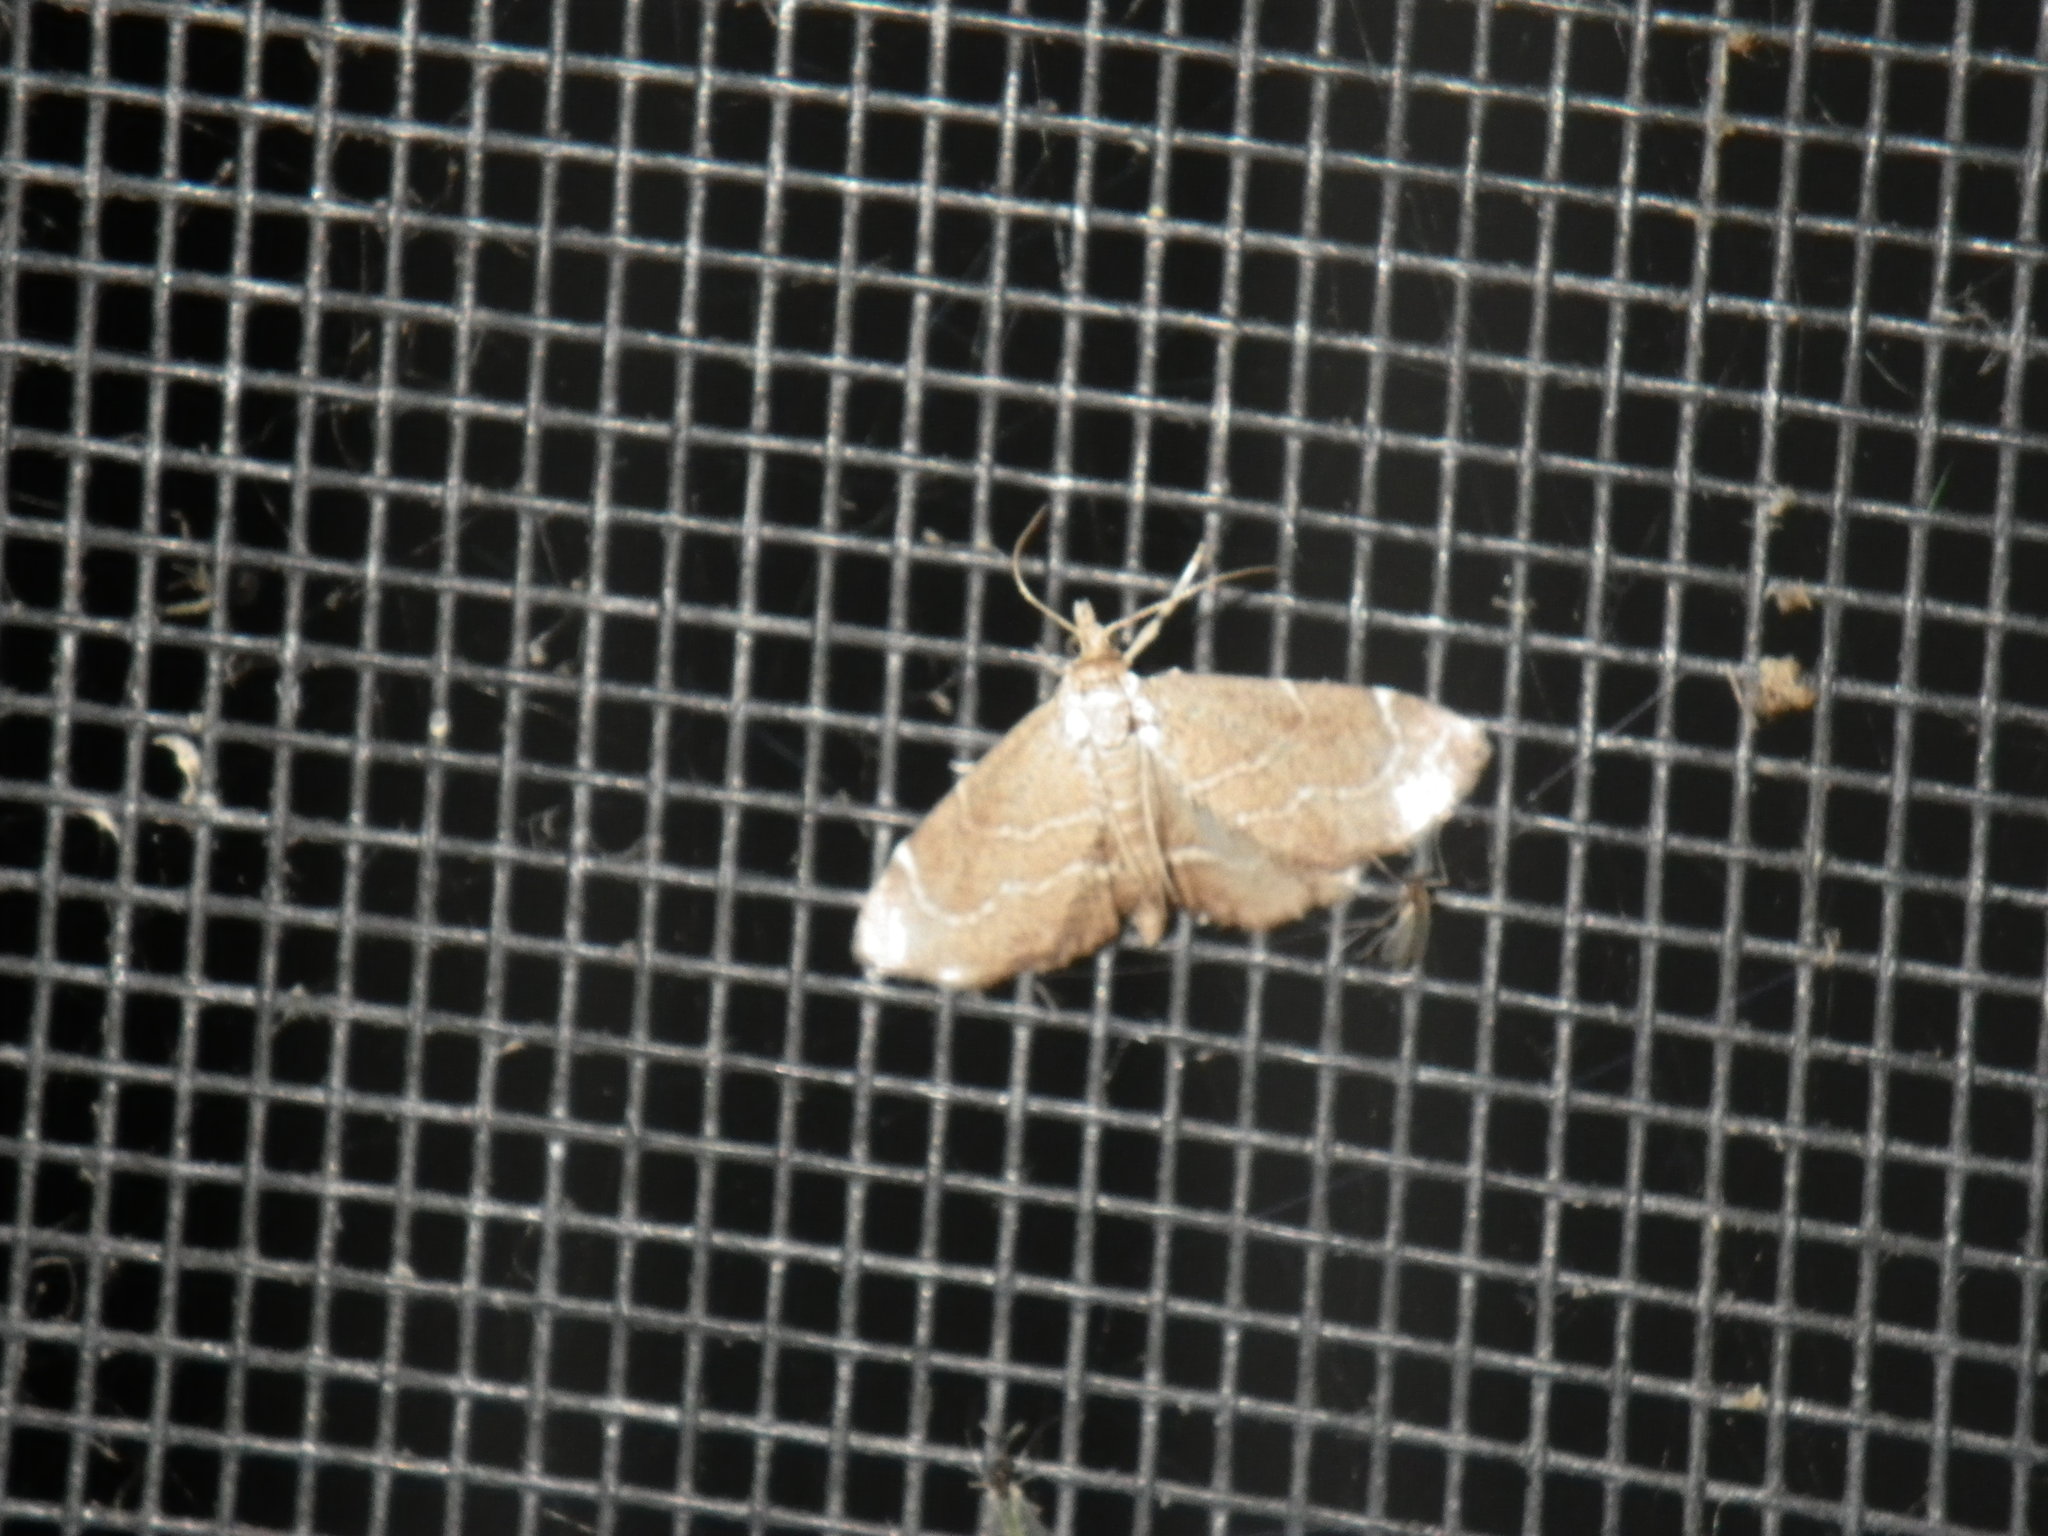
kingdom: Animalia
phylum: Arthropoda
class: Insecta
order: Lepidoptera
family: Crambidae
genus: Stegea
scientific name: Stegea salutalis
